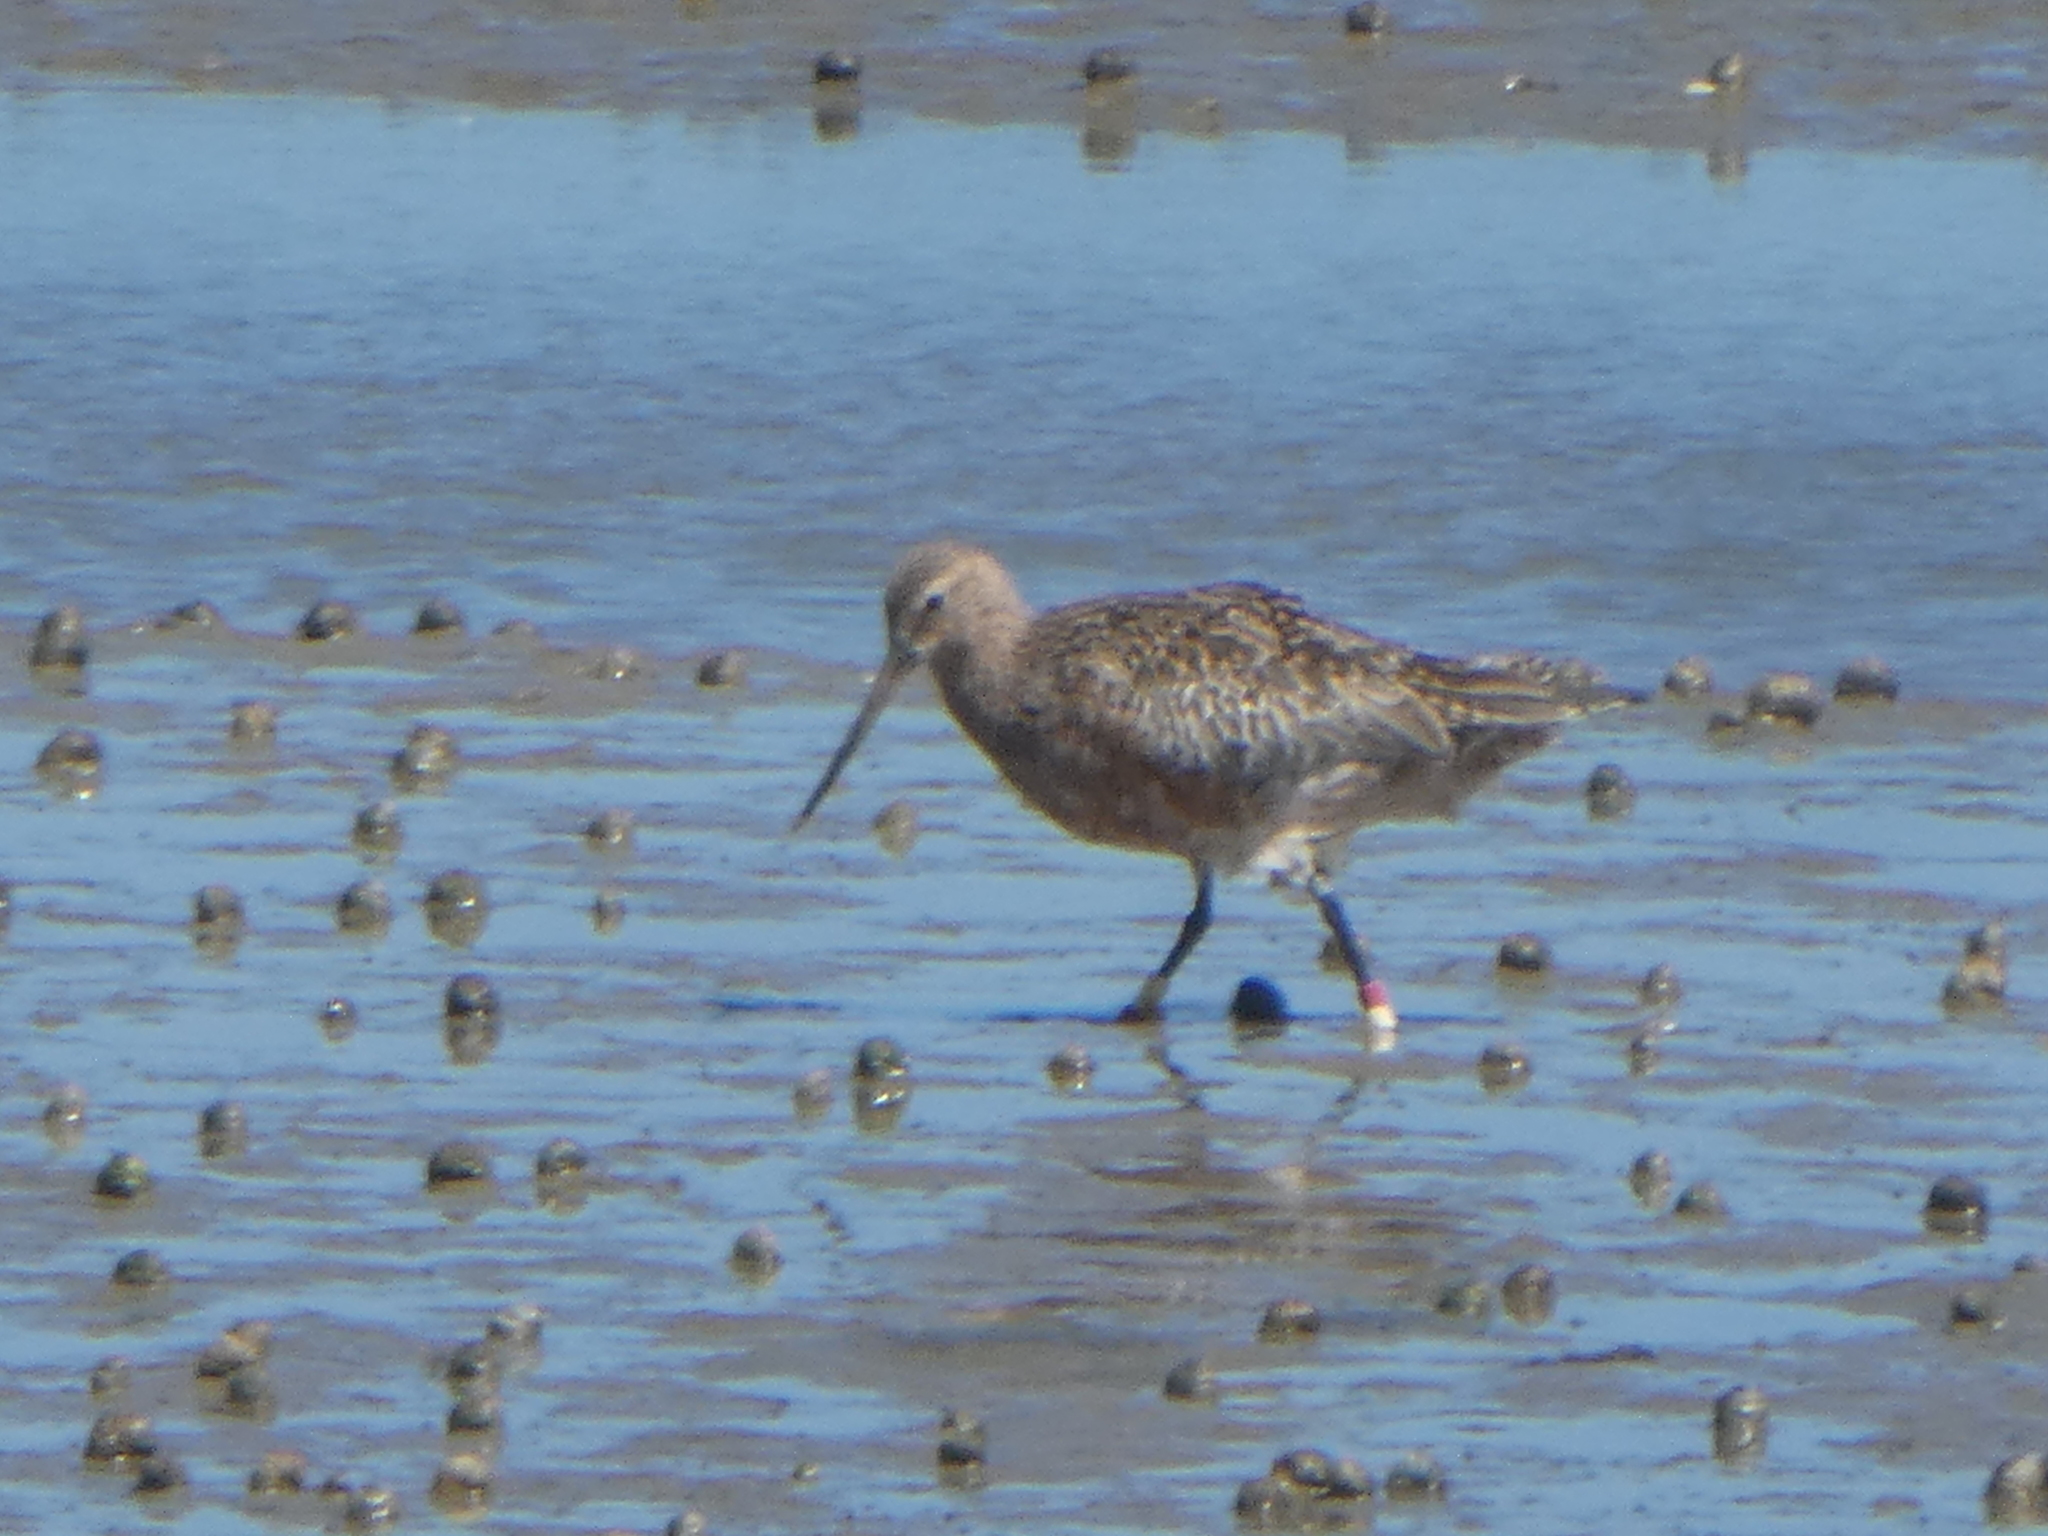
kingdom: Animalia
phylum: Chordata
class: Aves
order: Charadriiformes
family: Scolopacidae
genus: Limosa
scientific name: Limosa lapponica
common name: Bar-tailed godwit
